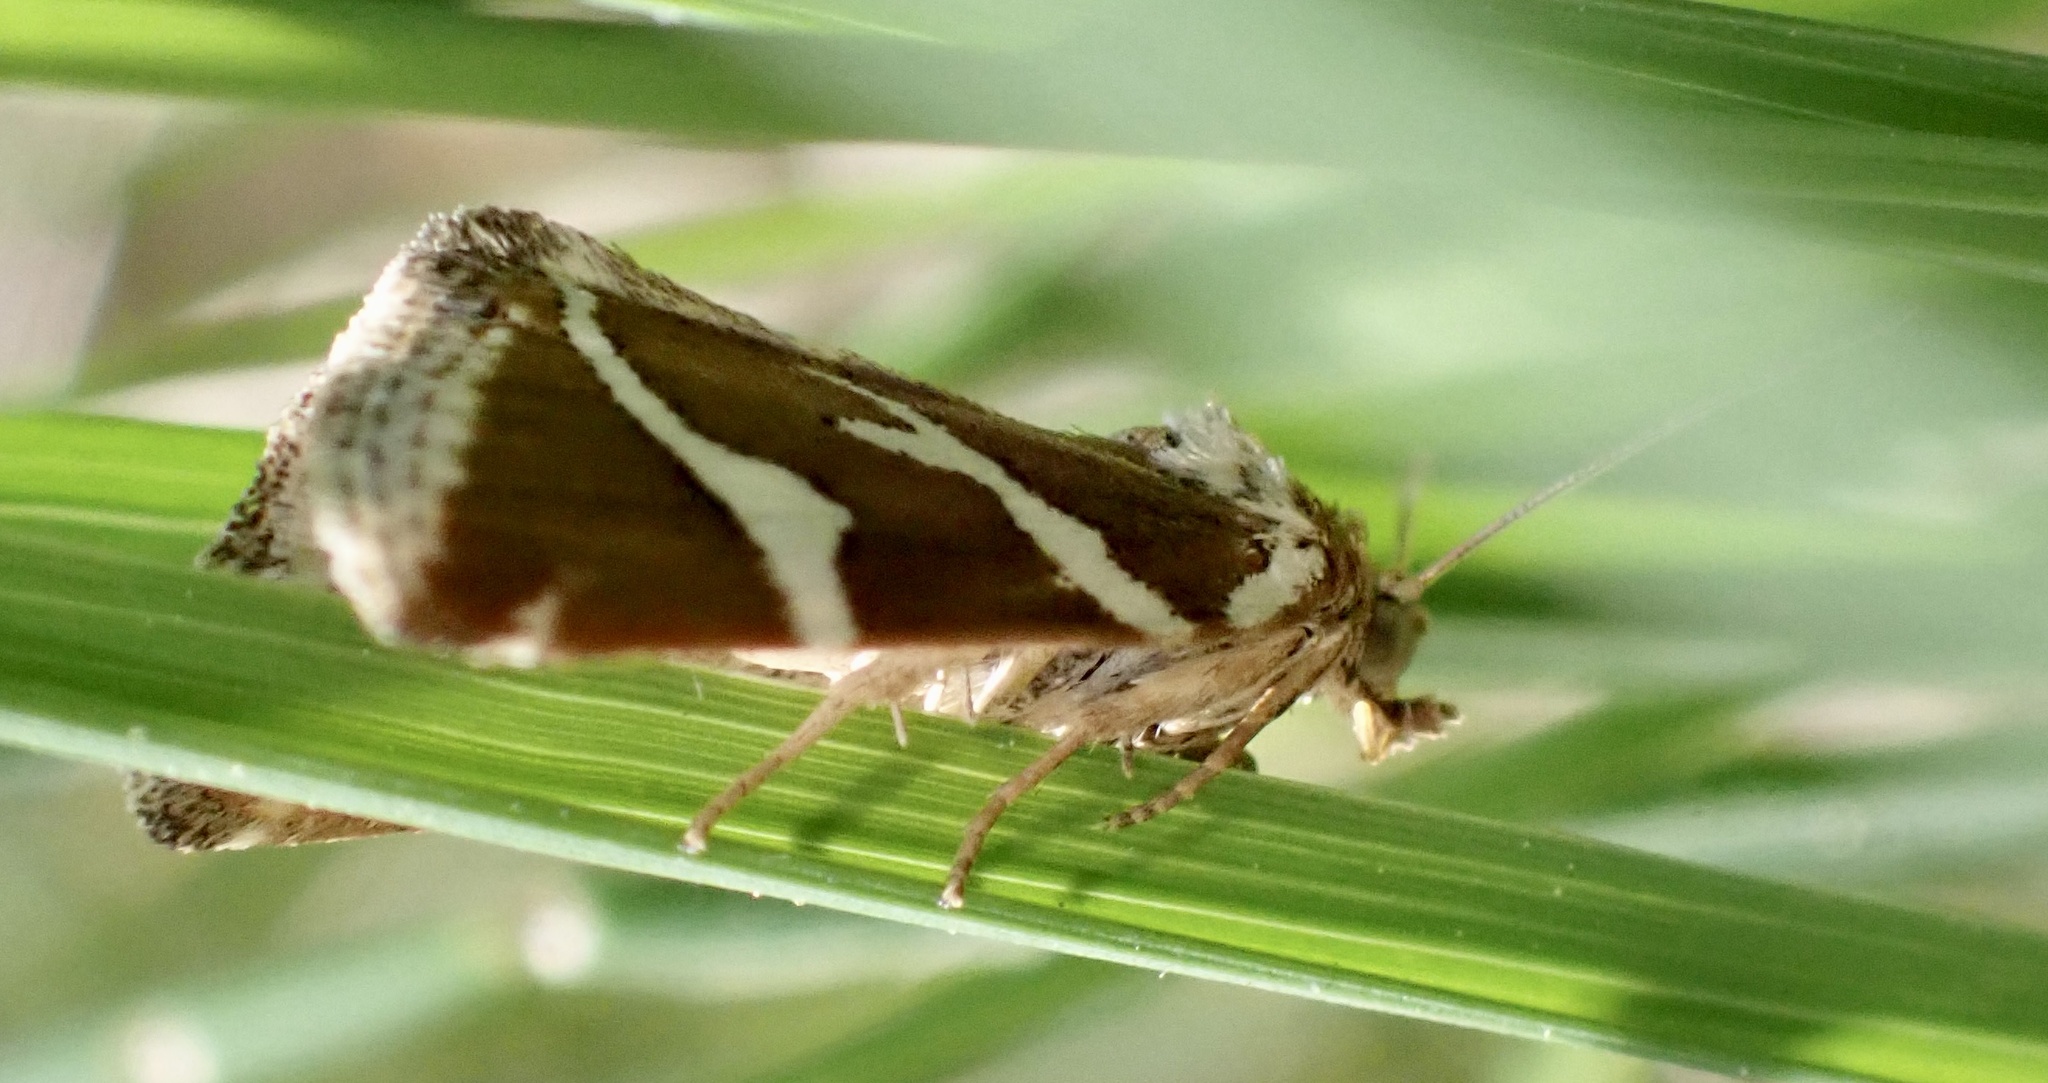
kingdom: Animalia
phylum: Arthropoda
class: Insecta
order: Lepidoptera
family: Noctuidae
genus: Deltote
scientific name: Deltote bankiana
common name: Silver barred
